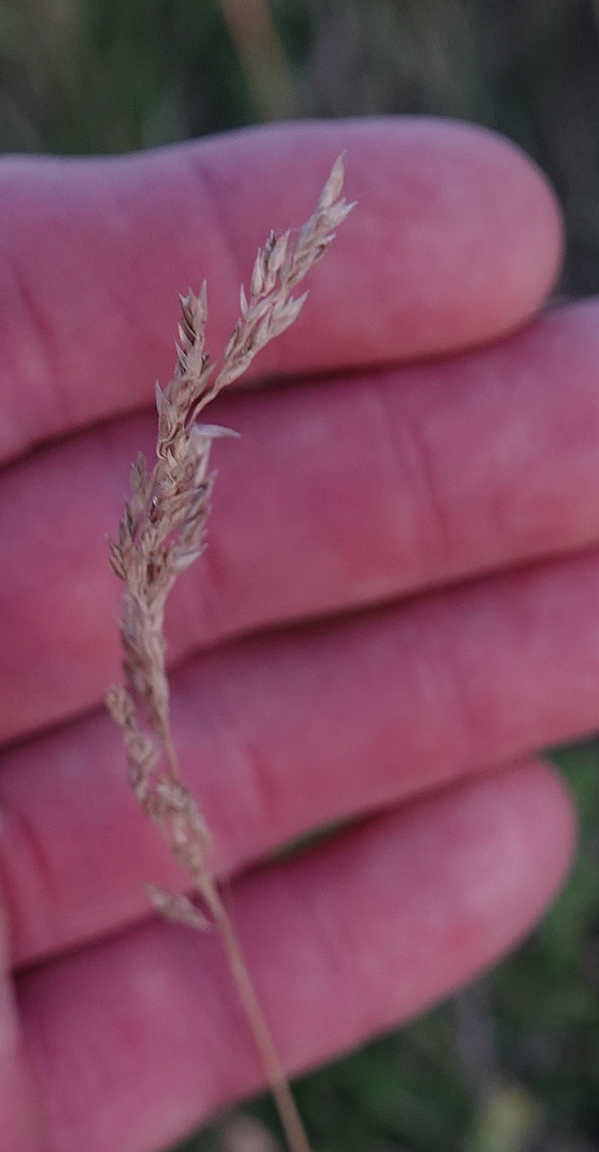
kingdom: Plantae
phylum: Tracheophyta
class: Liliopsida
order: Poales
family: Poaceae
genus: Poa
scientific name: Poa pratensis
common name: Kentucky bluegrass
